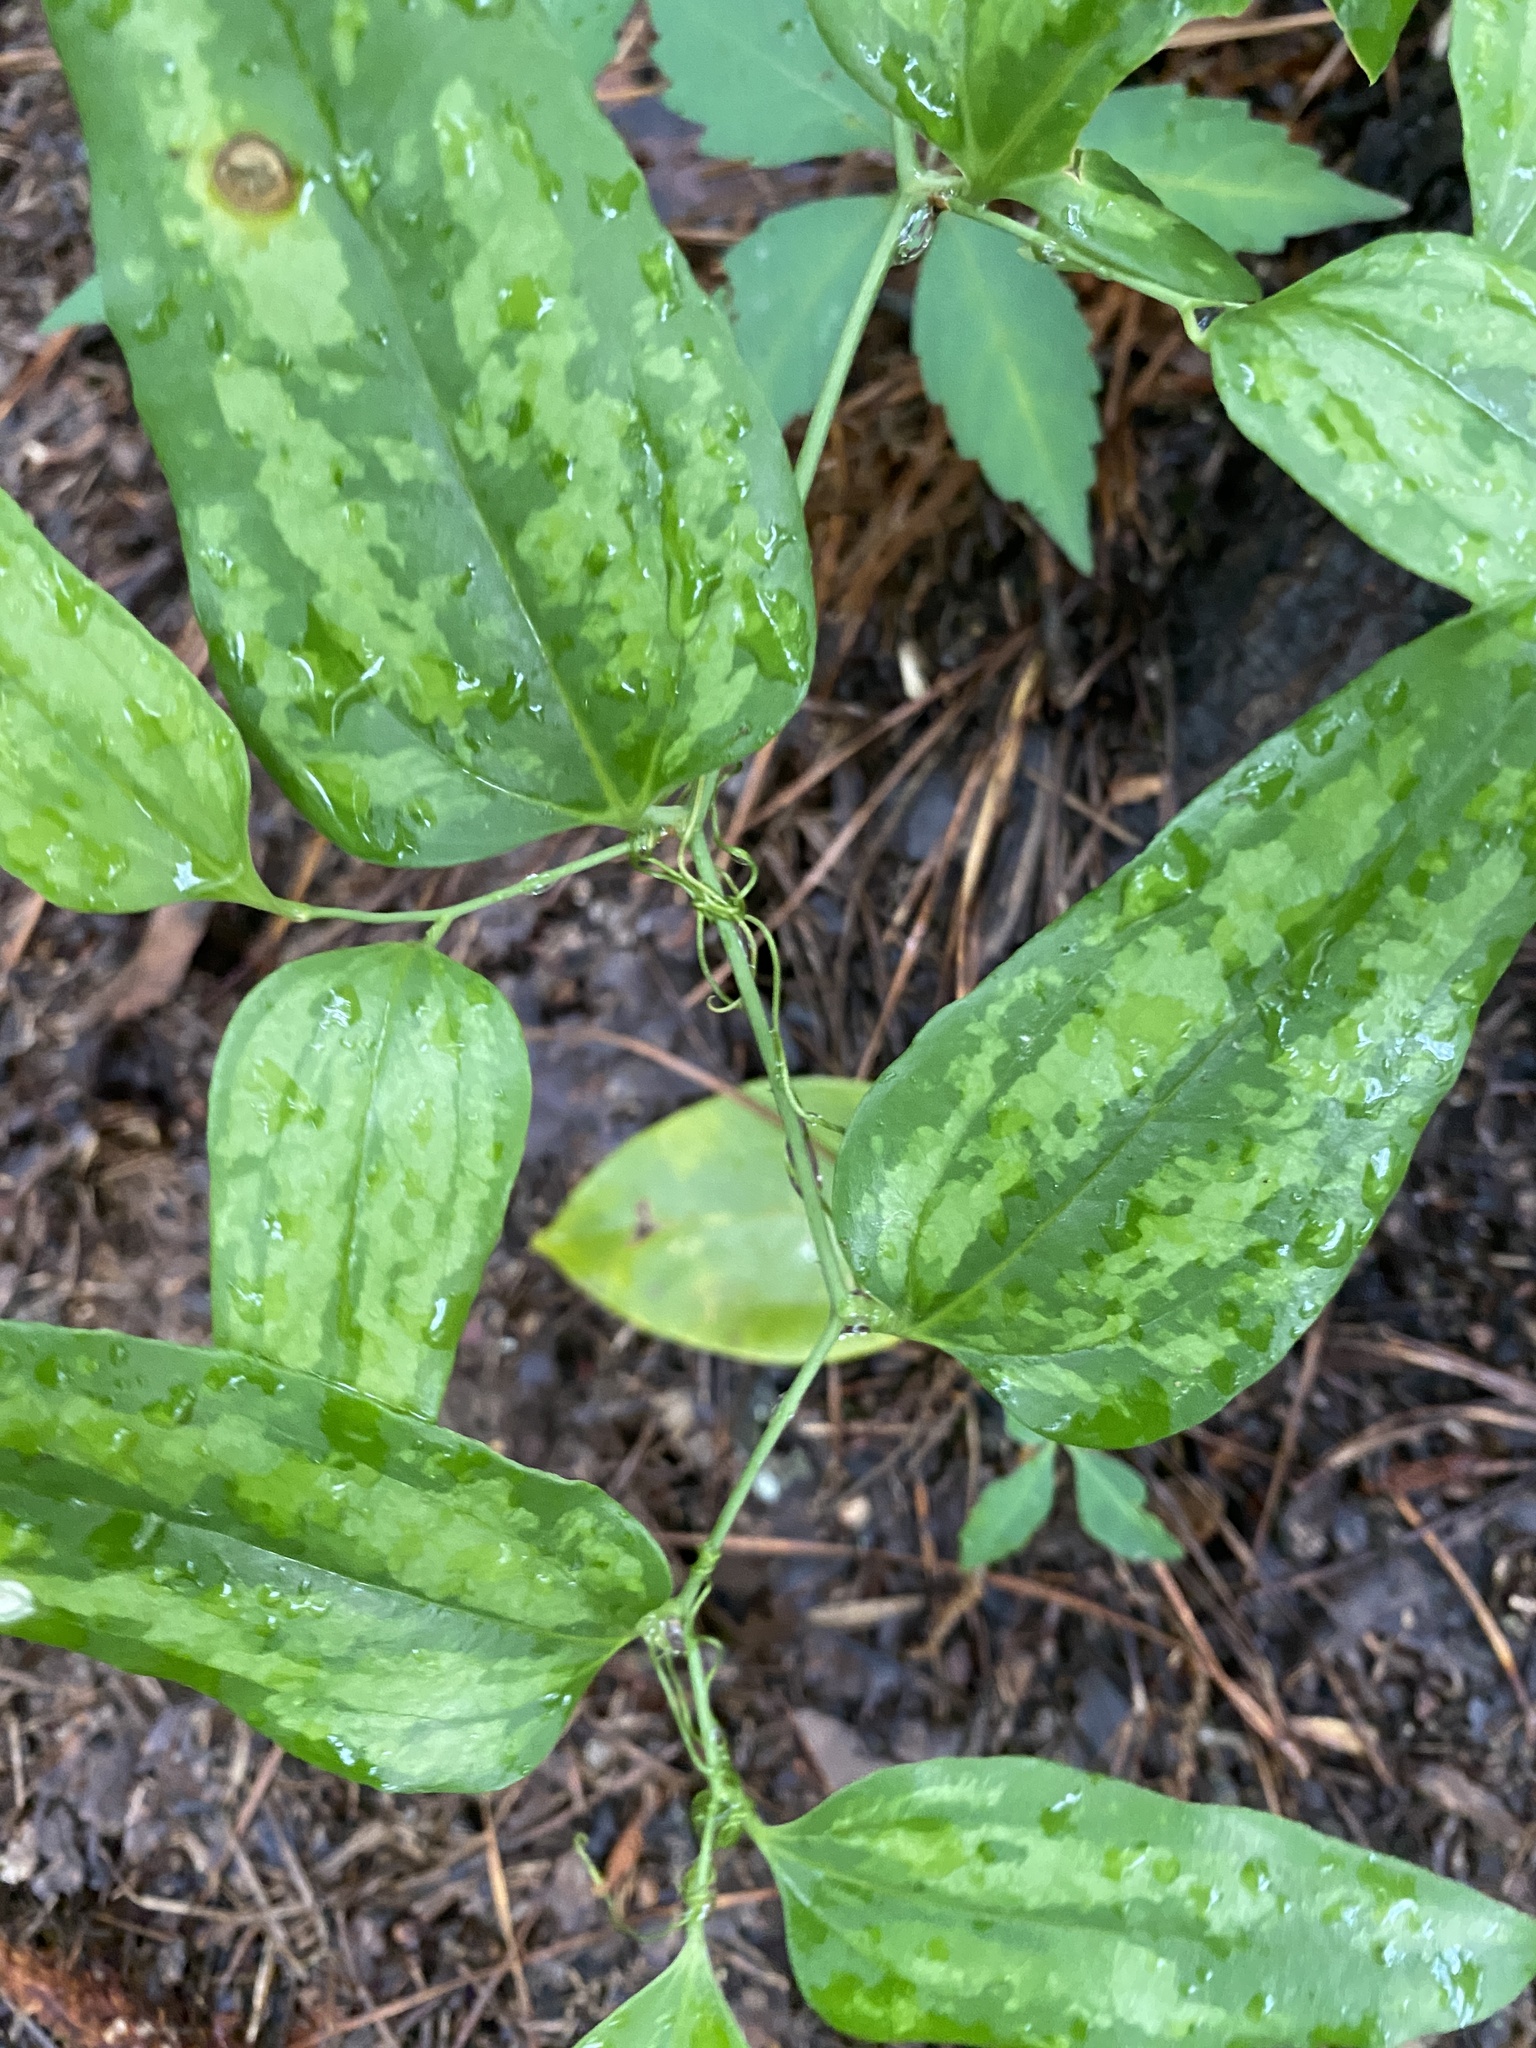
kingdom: Plantae
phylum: Tracheophyta
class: Liliopsida
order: Liliales
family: Smilacaceae
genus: Smilax
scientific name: Smilax maritima
